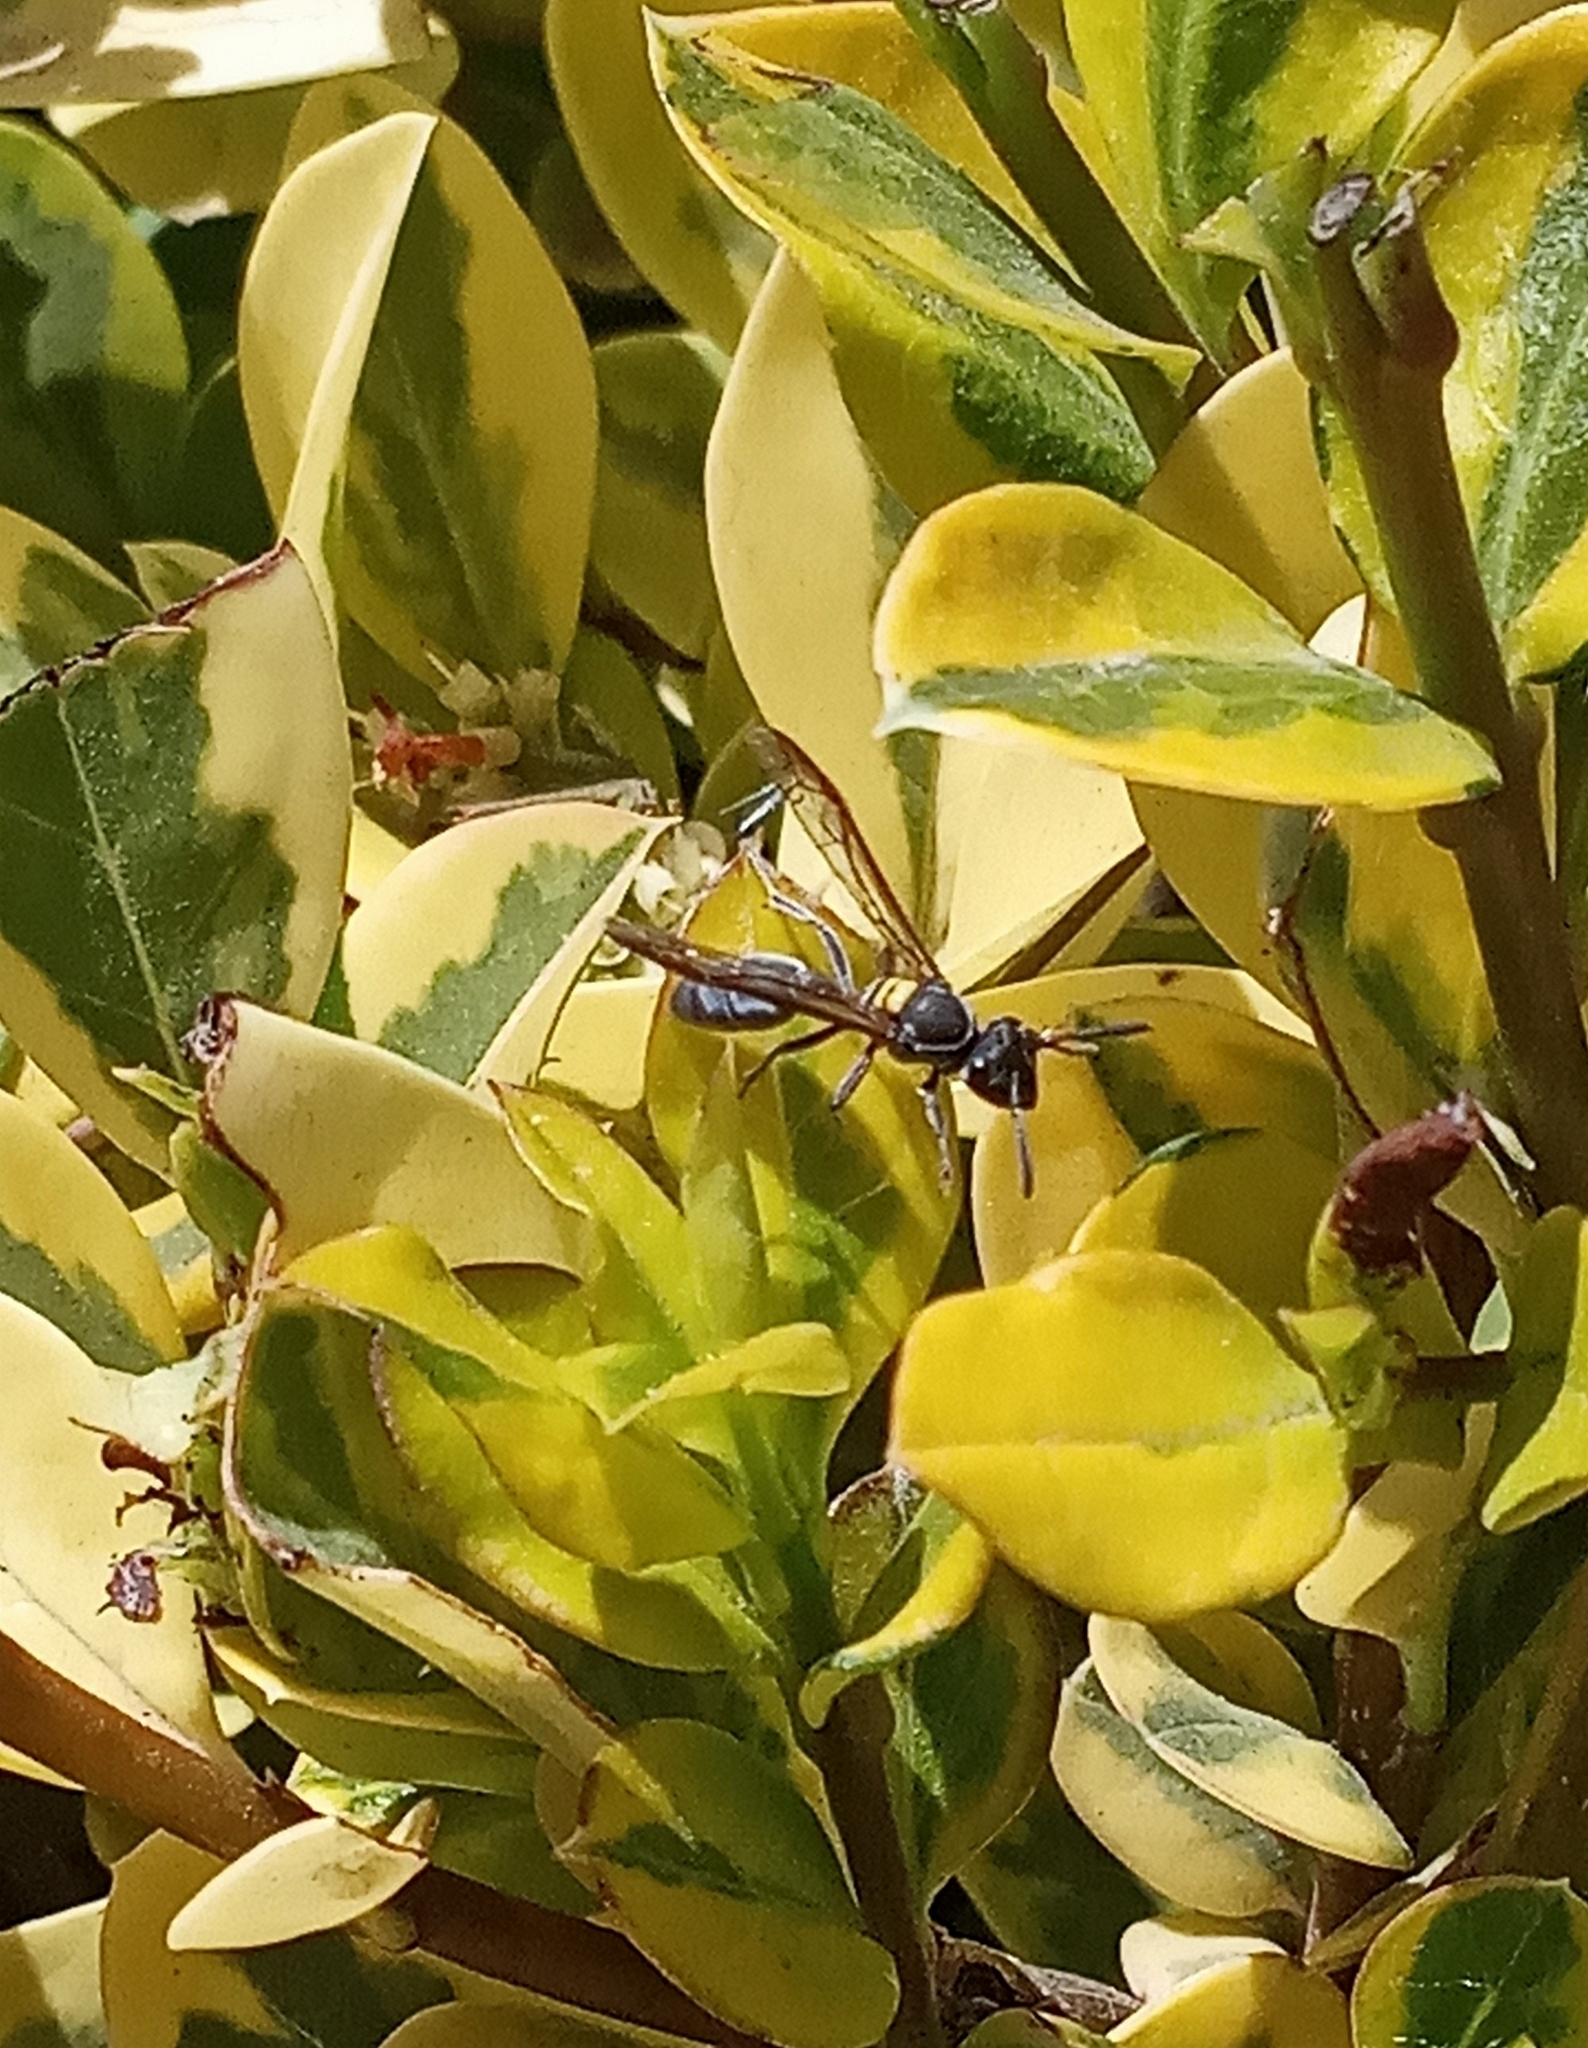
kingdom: Animalia
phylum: Arthropoda
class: Insecta
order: Hymenoptera
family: Eumenidae
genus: Polybia
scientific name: Polybia scutellaris
